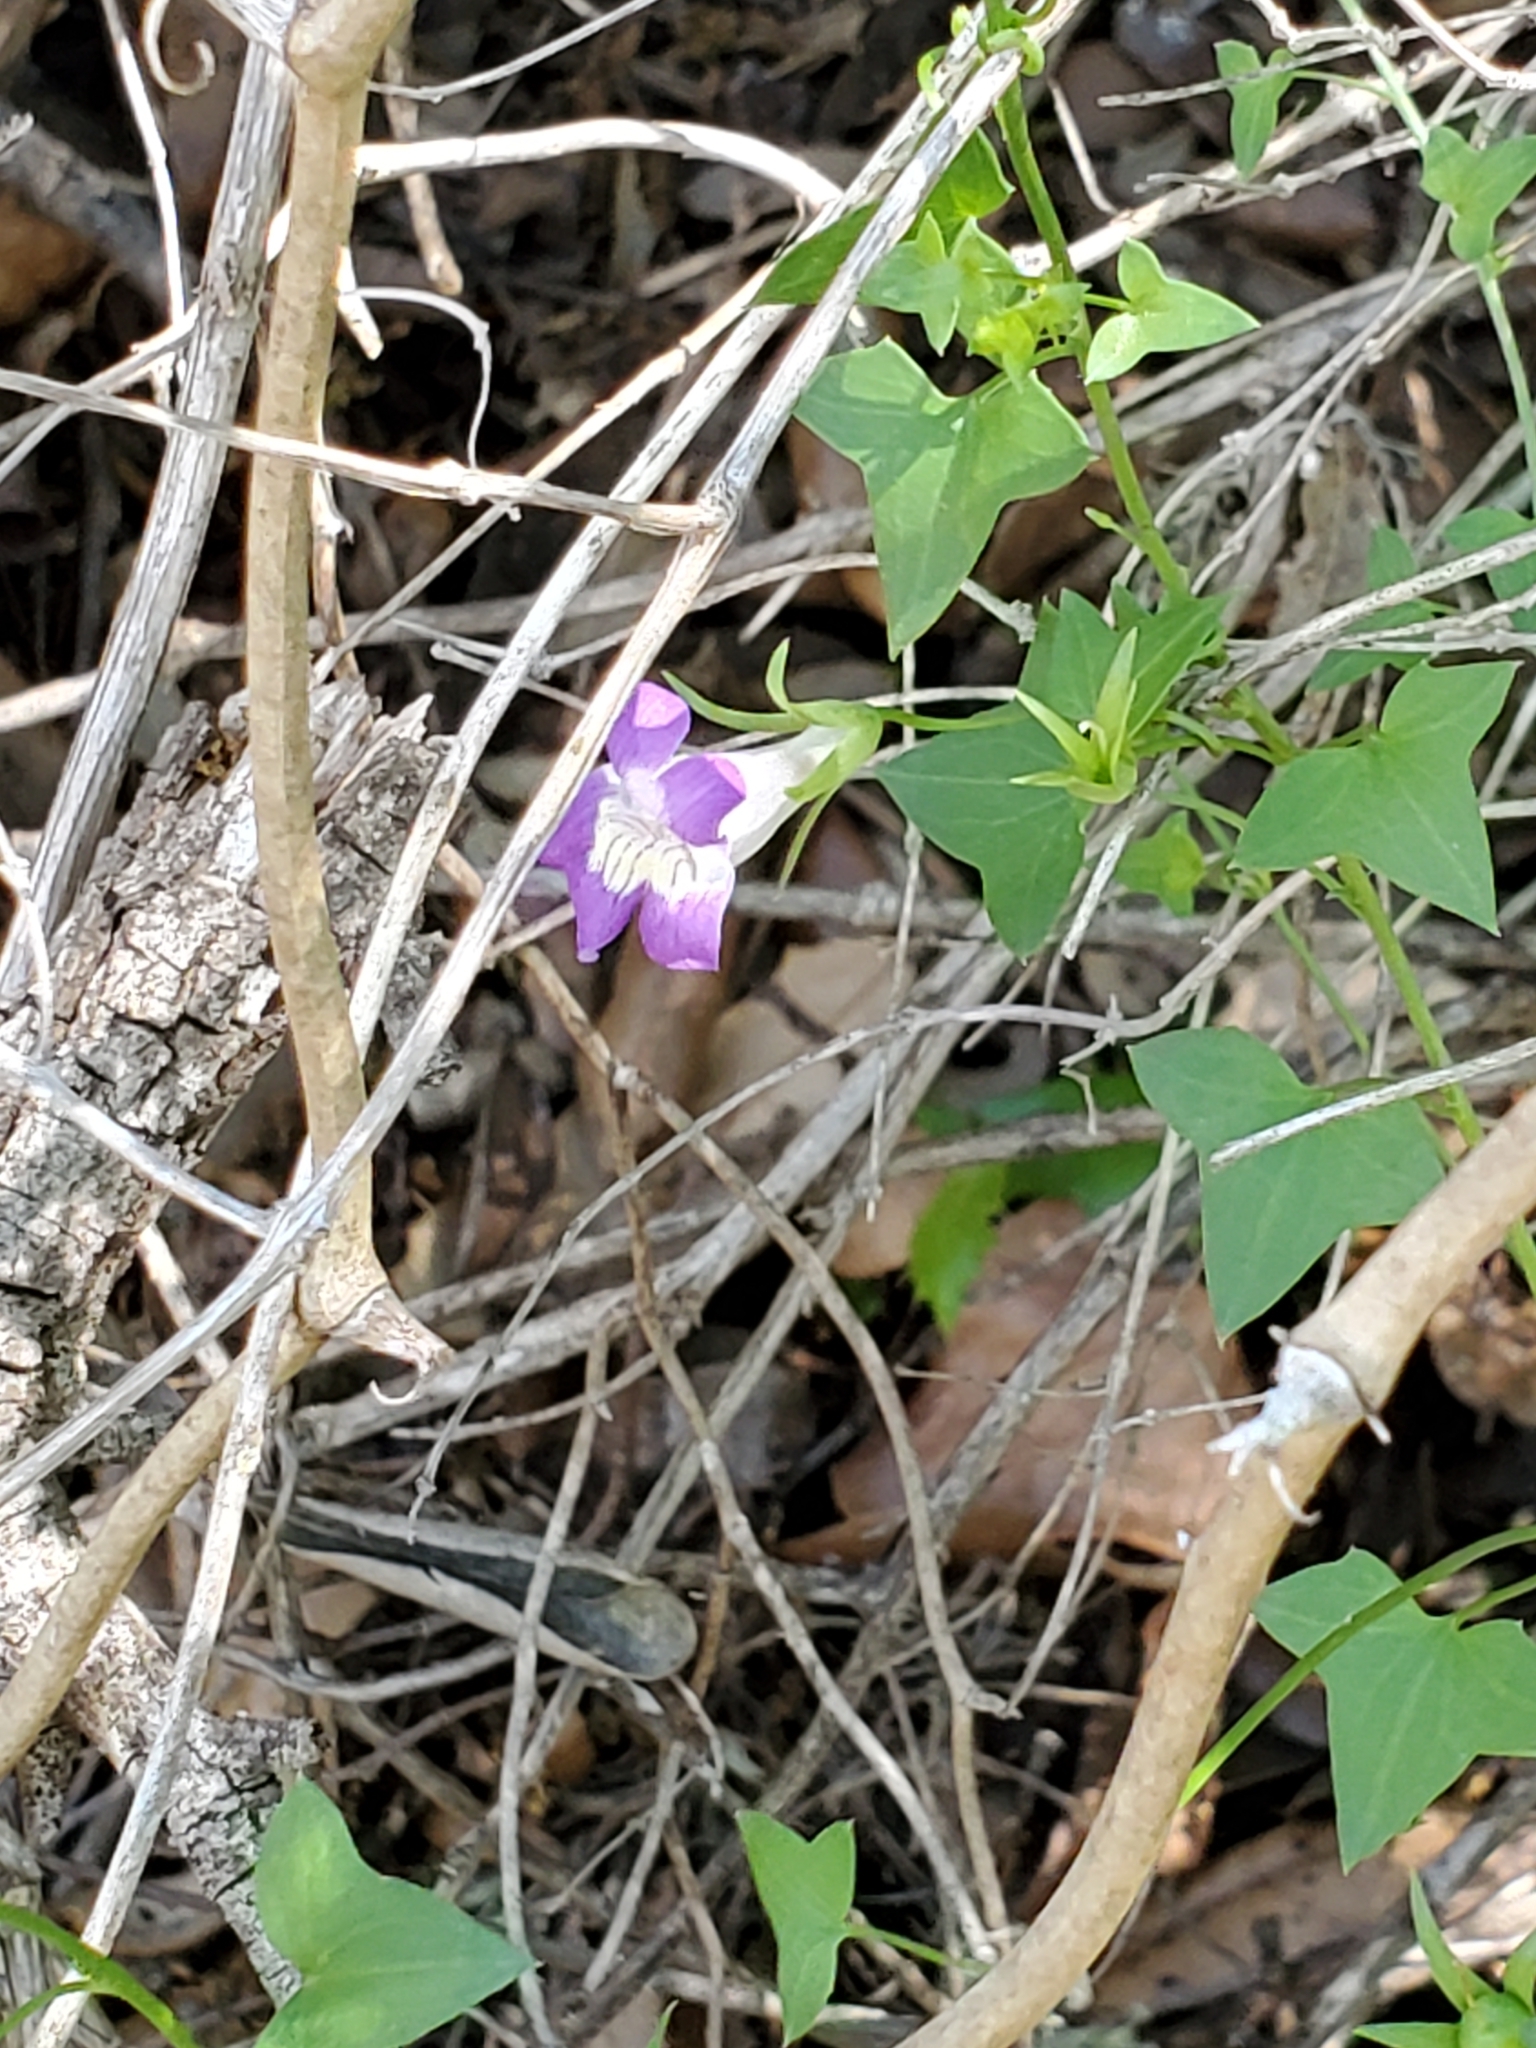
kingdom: Plantae
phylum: Tracheophyta
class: Magnoliopsida
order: Lamiales
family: Plantaginaceae
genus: Maurandella
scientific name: Maurandella antirrhiniflora
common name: Violet twining-snapdragon
